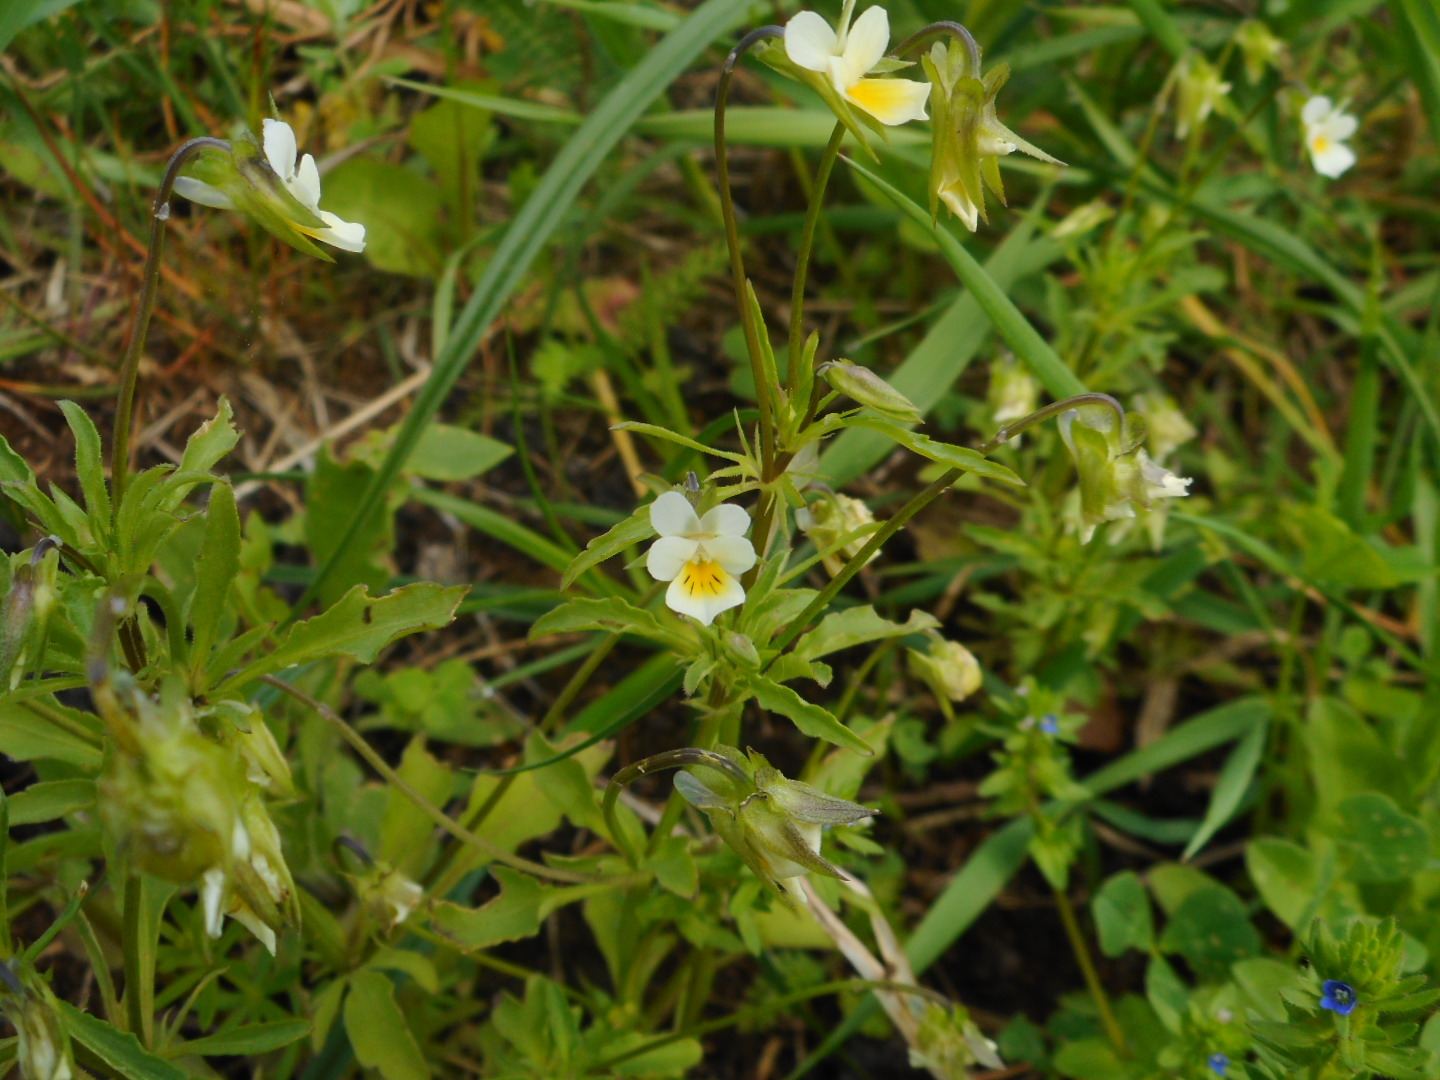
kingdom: Plantae
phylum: Tracheophyta
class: Magnoliopsida
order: Malpighiales
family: Violaceae
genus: Viola
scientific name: Viola arvensis
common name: Field pansy
